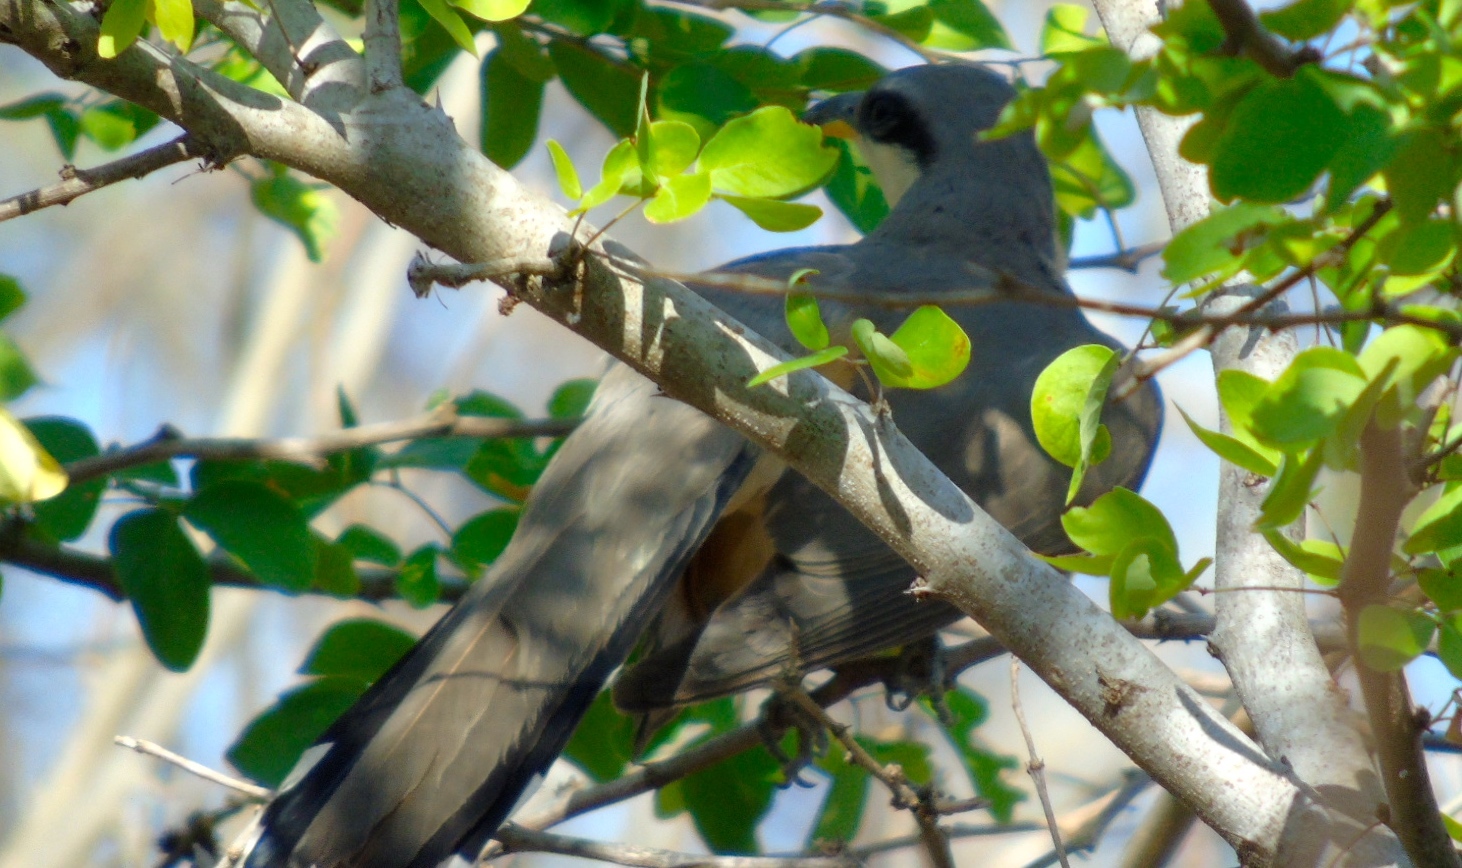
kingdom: Animalia
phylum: Chordata
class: Aves
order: Cuculiformes
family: Cuculidae
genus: Coccyzus
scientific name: Coccyzus minor
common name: Mangrove cuckoo
